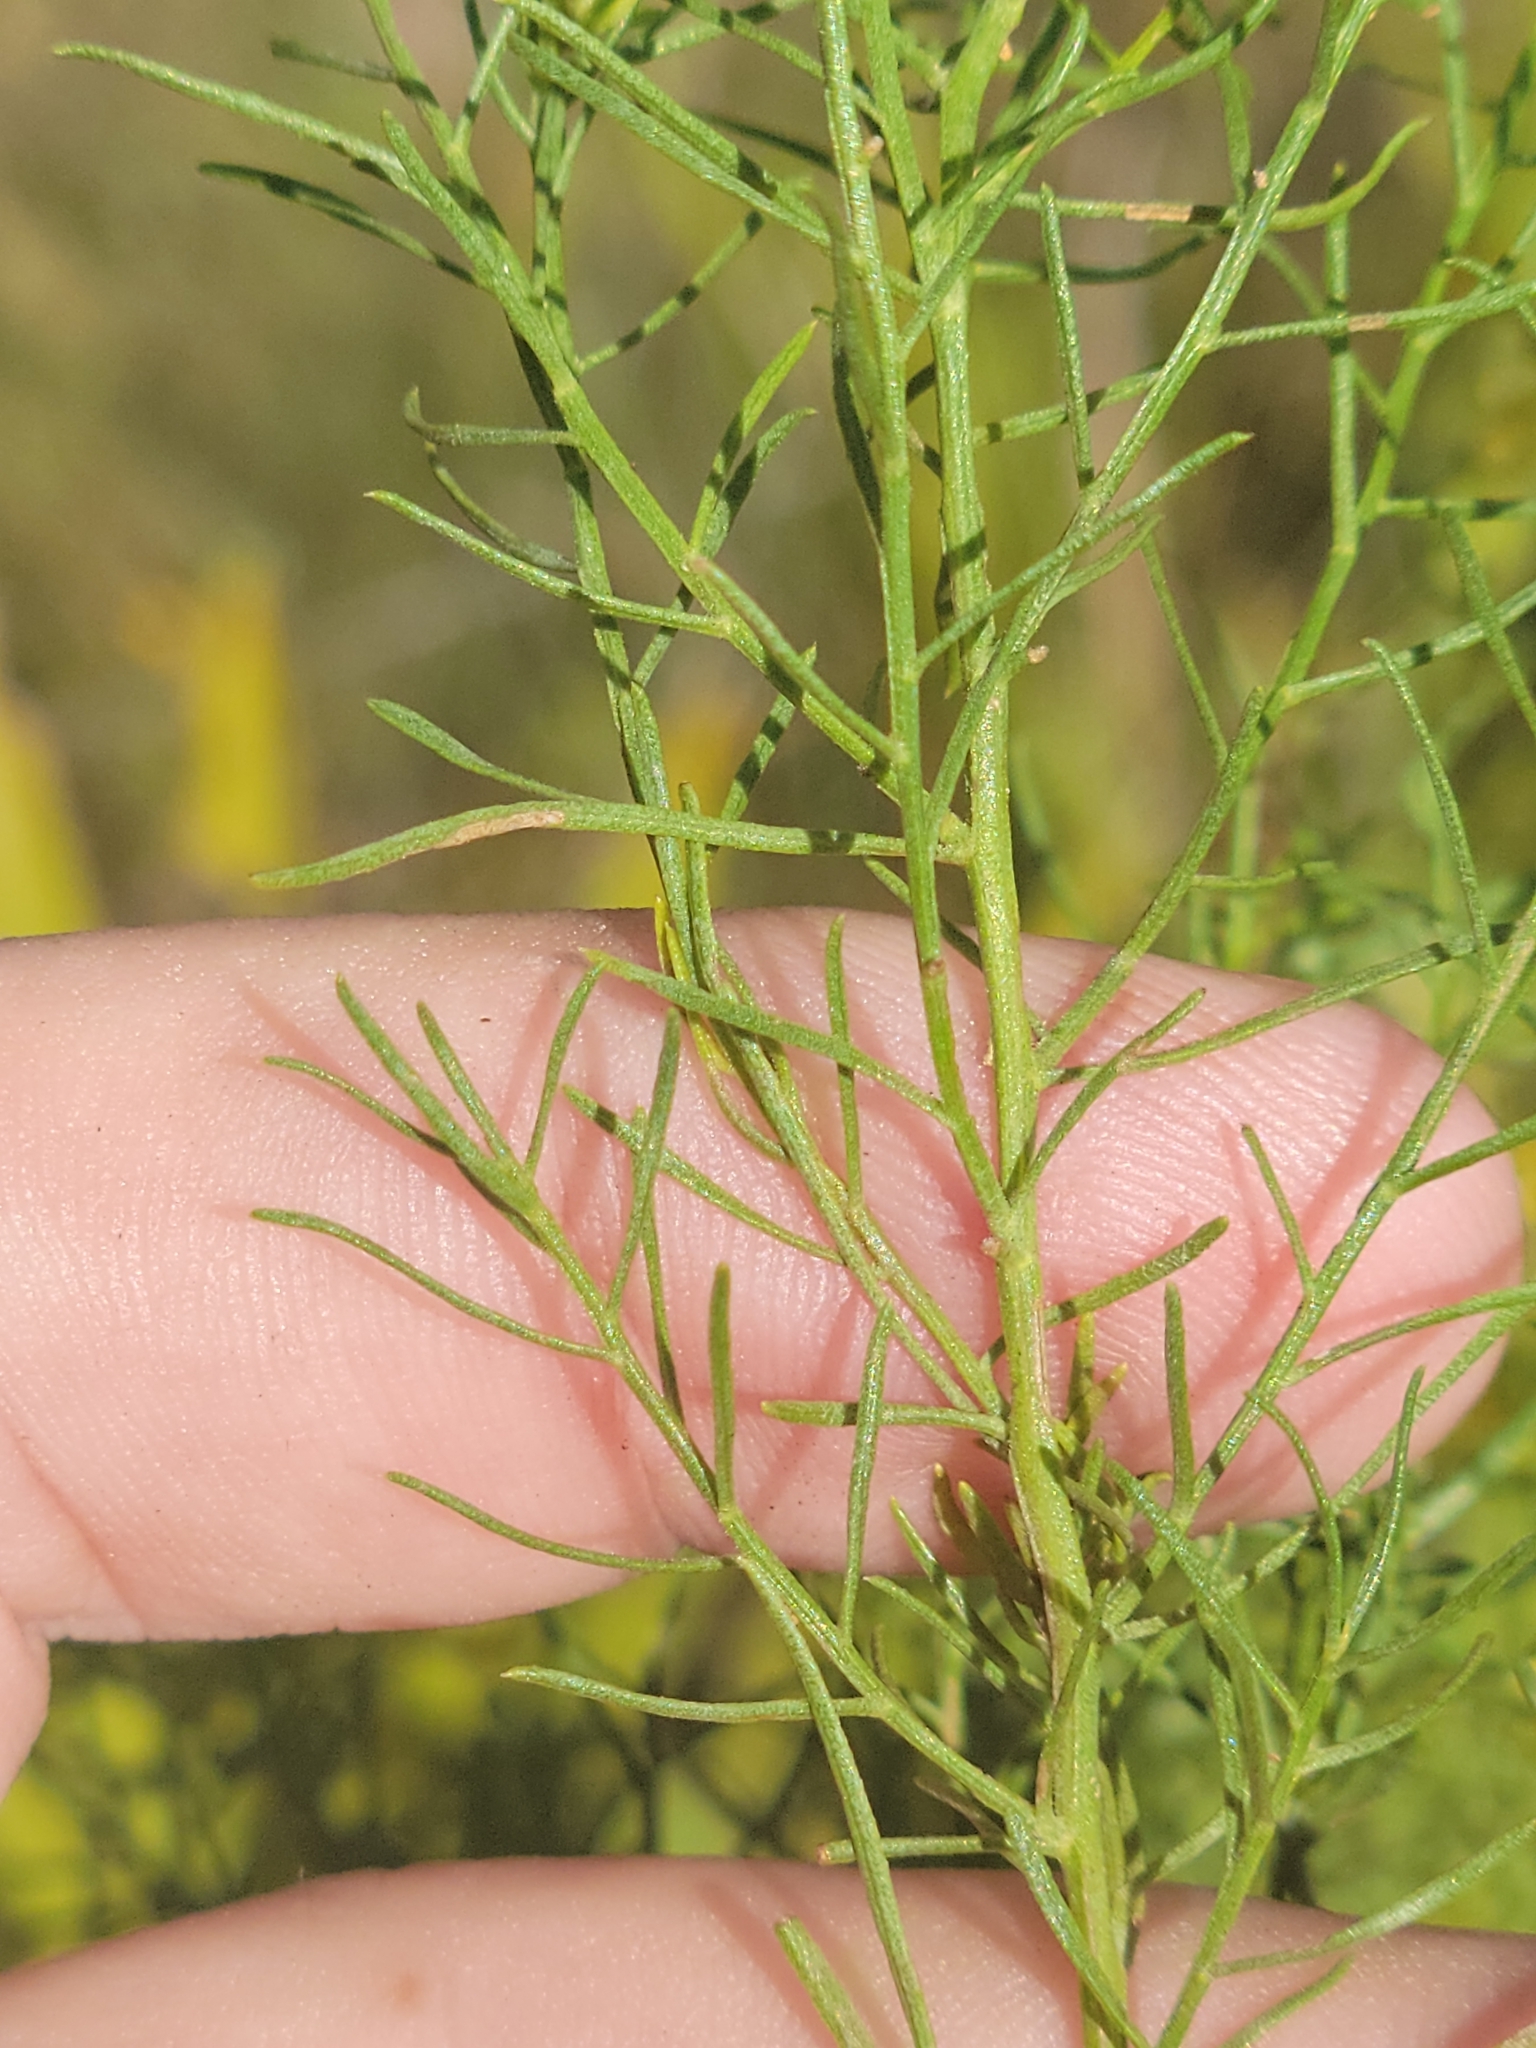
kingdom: Plantae
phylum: Tracheophyta
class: Magnoliopsida
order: Asterales
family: Asteraceae
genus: Euthamia
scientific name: Euthamia caroliniana
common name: Coastal plain goldentop
